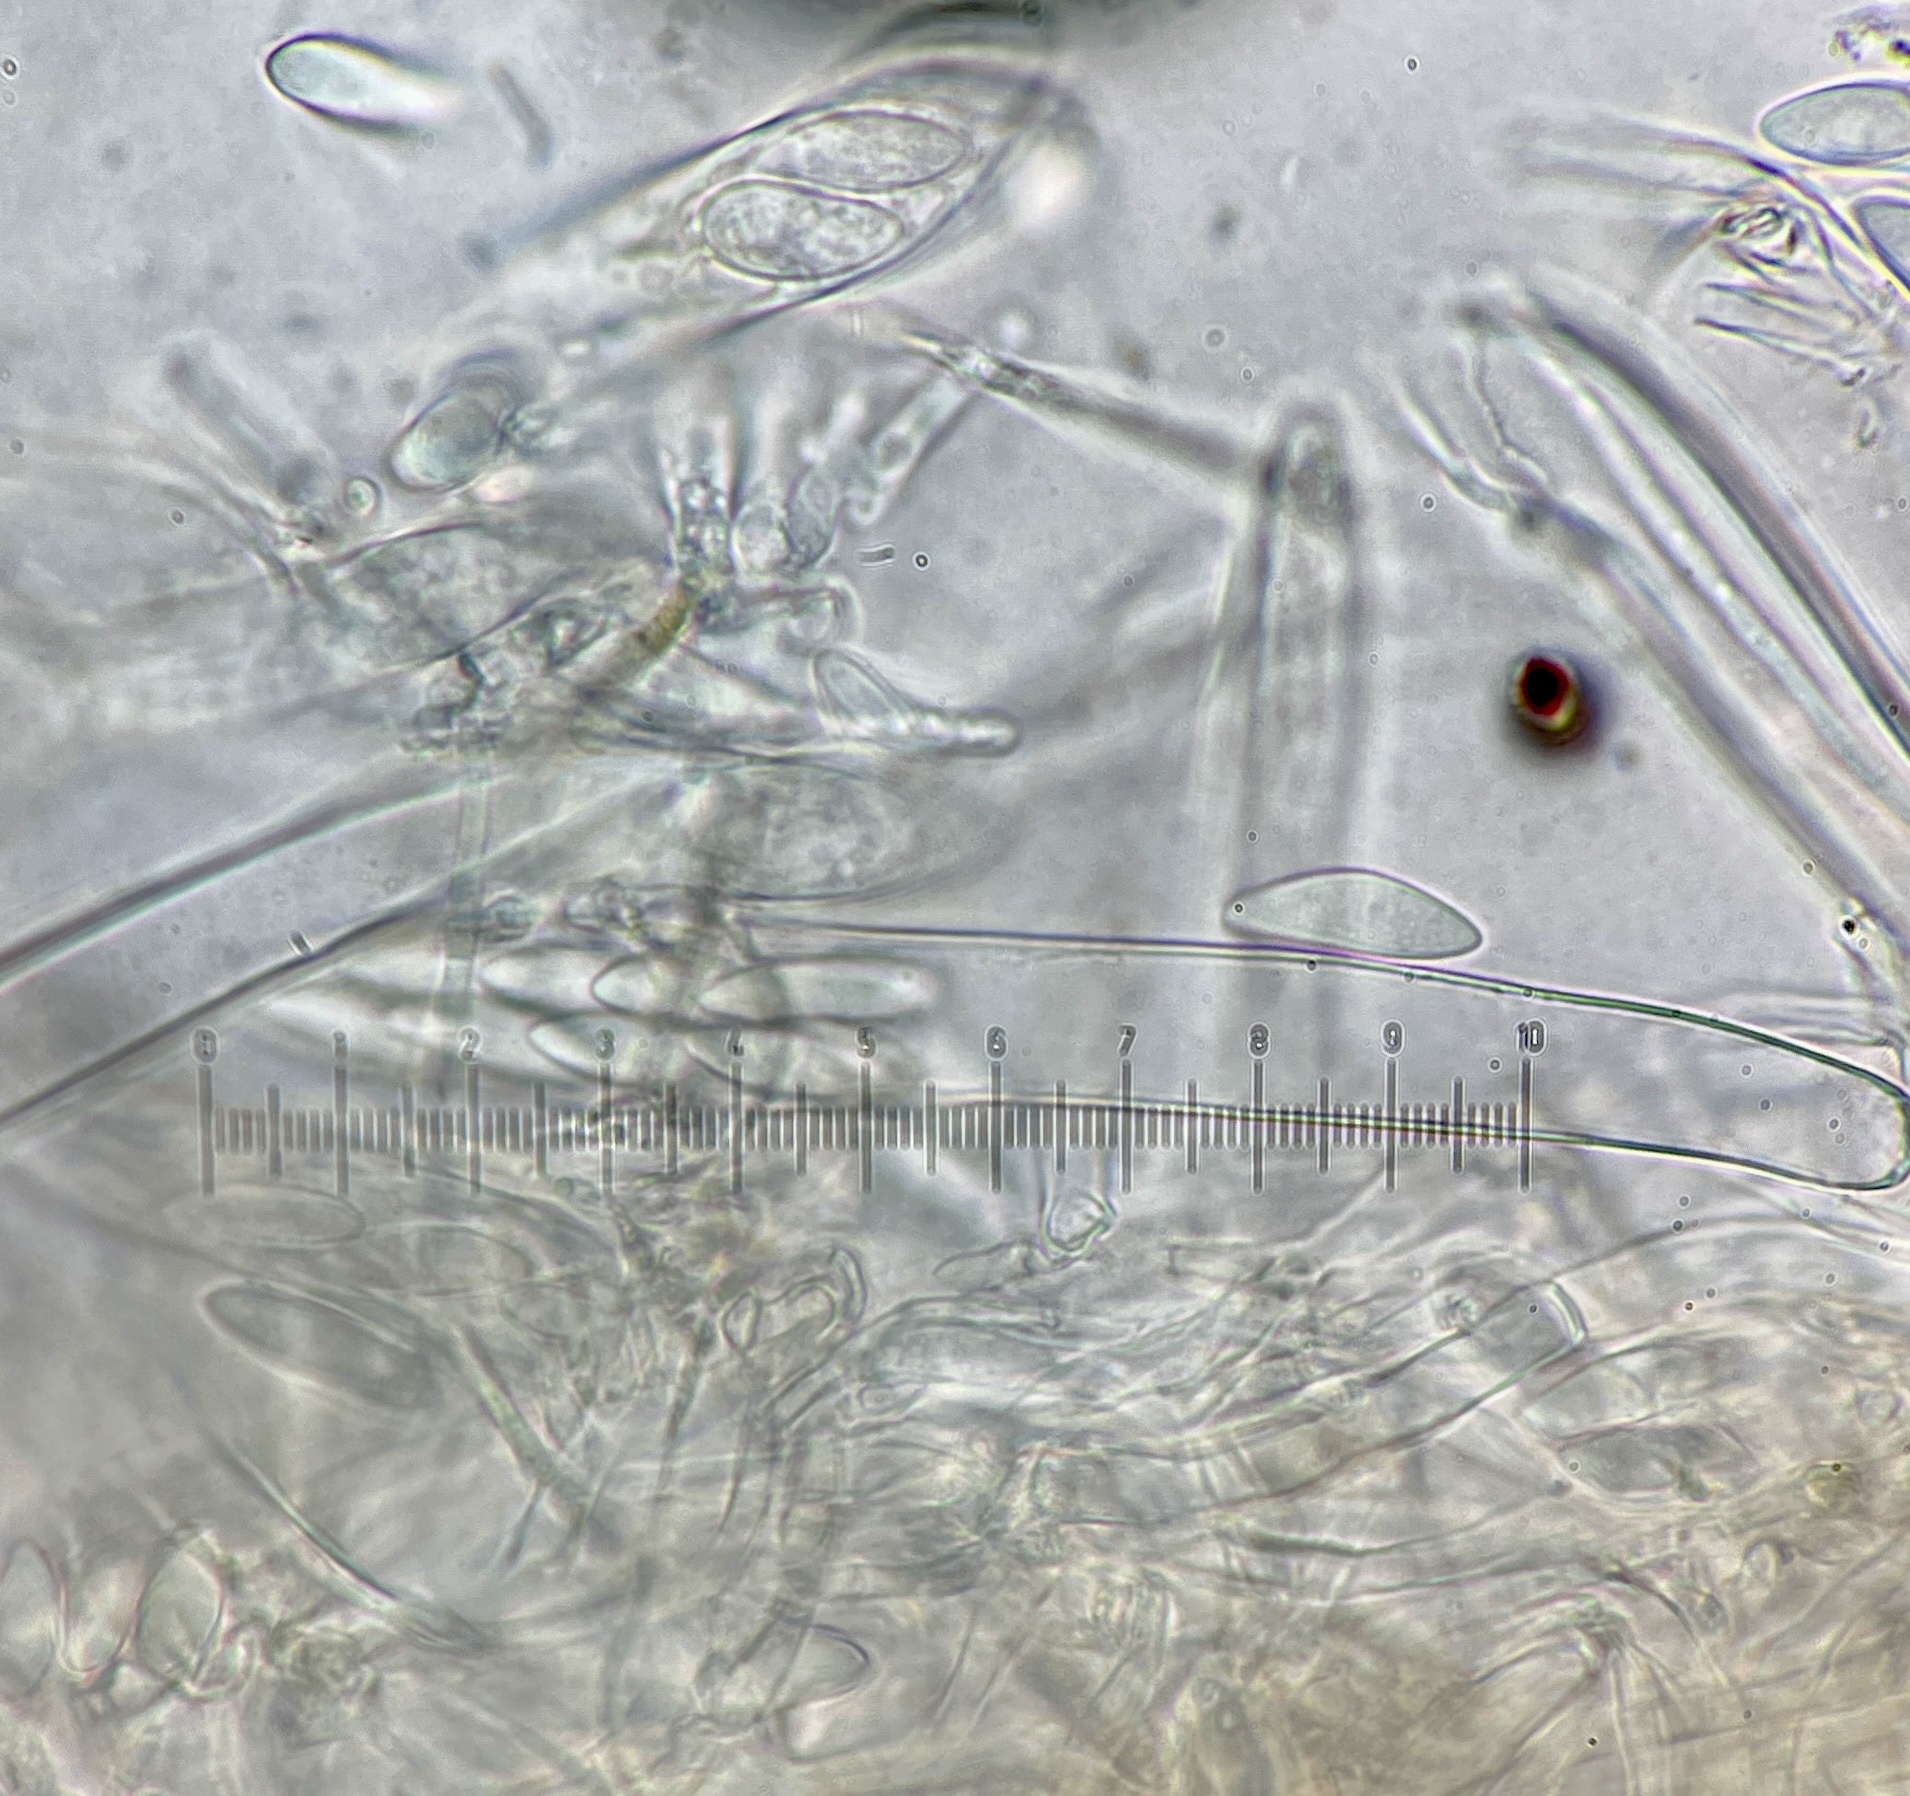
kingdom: Fungi
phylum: Ascomycota
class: Leotiomycetes
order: Helotiales
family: Tricladiaceae
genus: Cudoniella
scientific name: Cudoniella acicularis
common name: Oak pin
